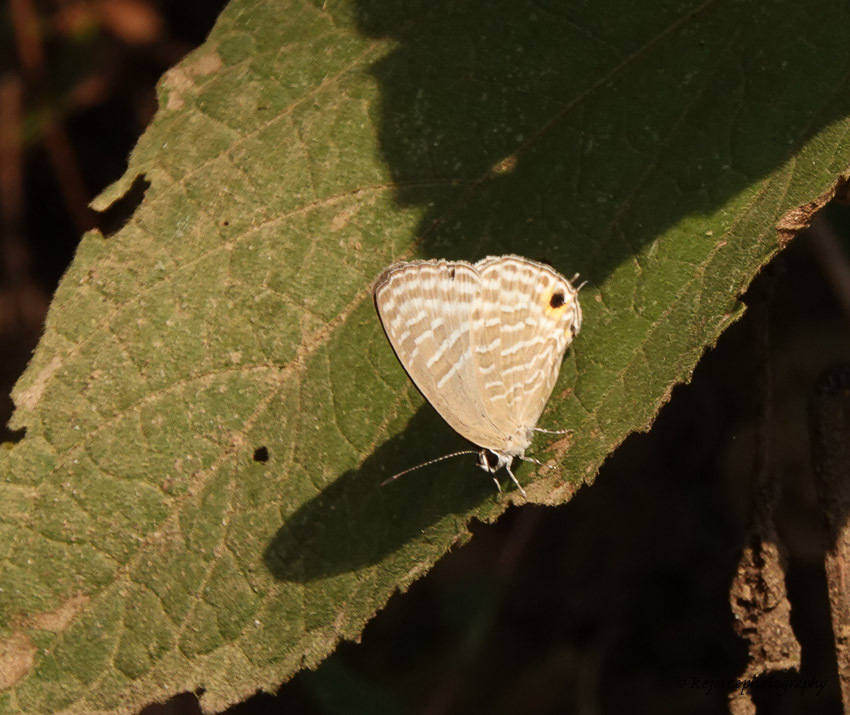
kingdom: Animalia
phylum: Arthropoda
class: Insecta
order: Lepidoptera
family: Lycaenidae
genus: Jamides
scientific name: Jamides alecto
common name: Metallic cerulean
